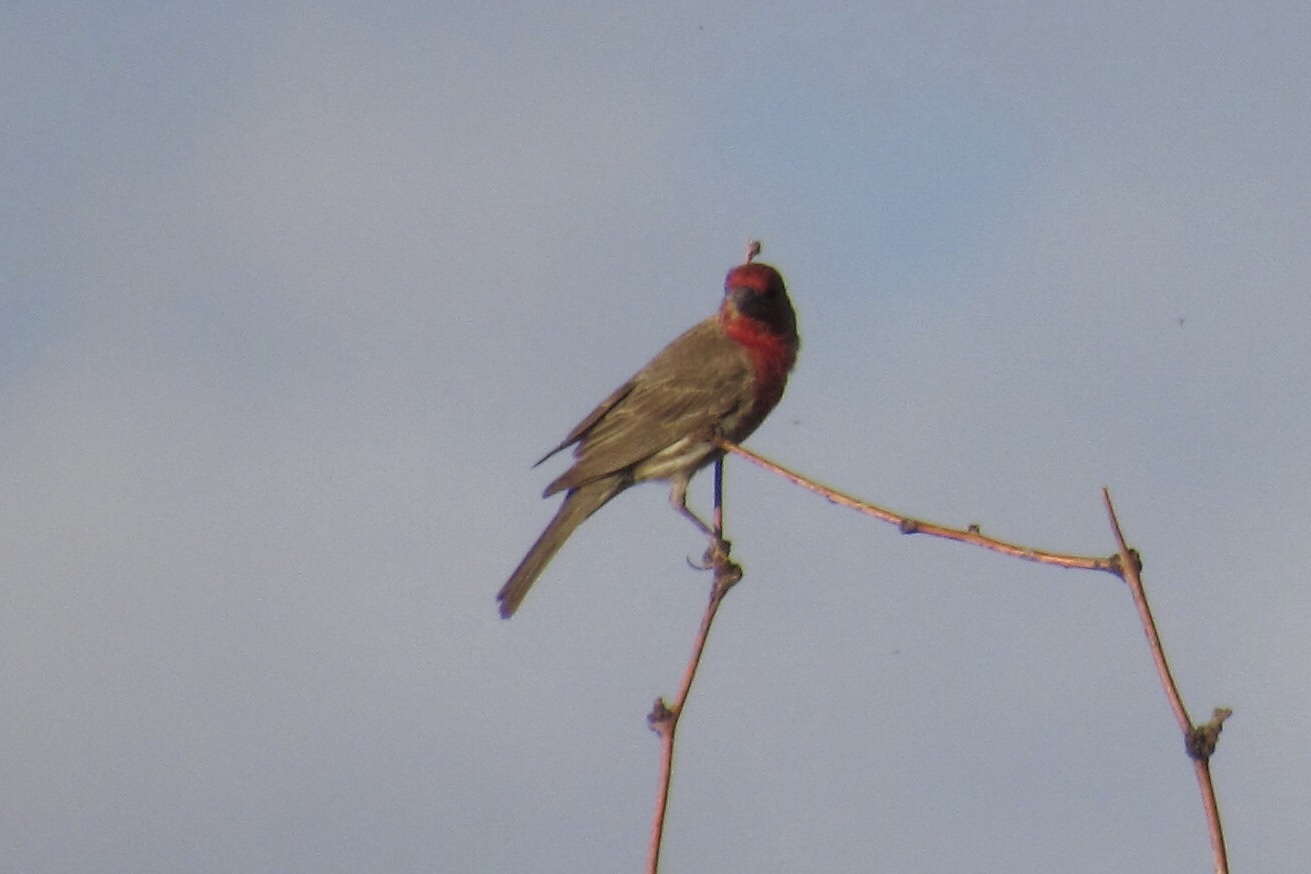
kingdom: Animalia
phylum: Chordata
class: Aves
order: Passeriformes
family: Fringillidae
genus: Haemorhous
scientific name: Haemorhous mexicanus
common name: House finch
